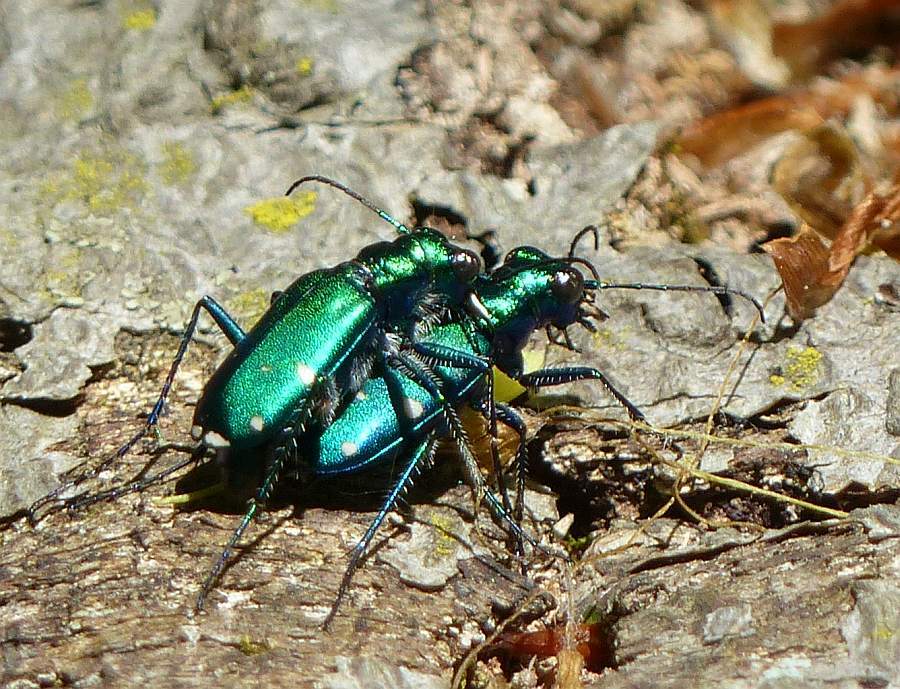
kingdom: Animalia
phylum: Arthropoda
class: Insecta
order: Coleoptera
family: Carabidae
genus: Cicindela
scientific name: Cicindela sexguttata
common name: Six-spotted tiger beetle
